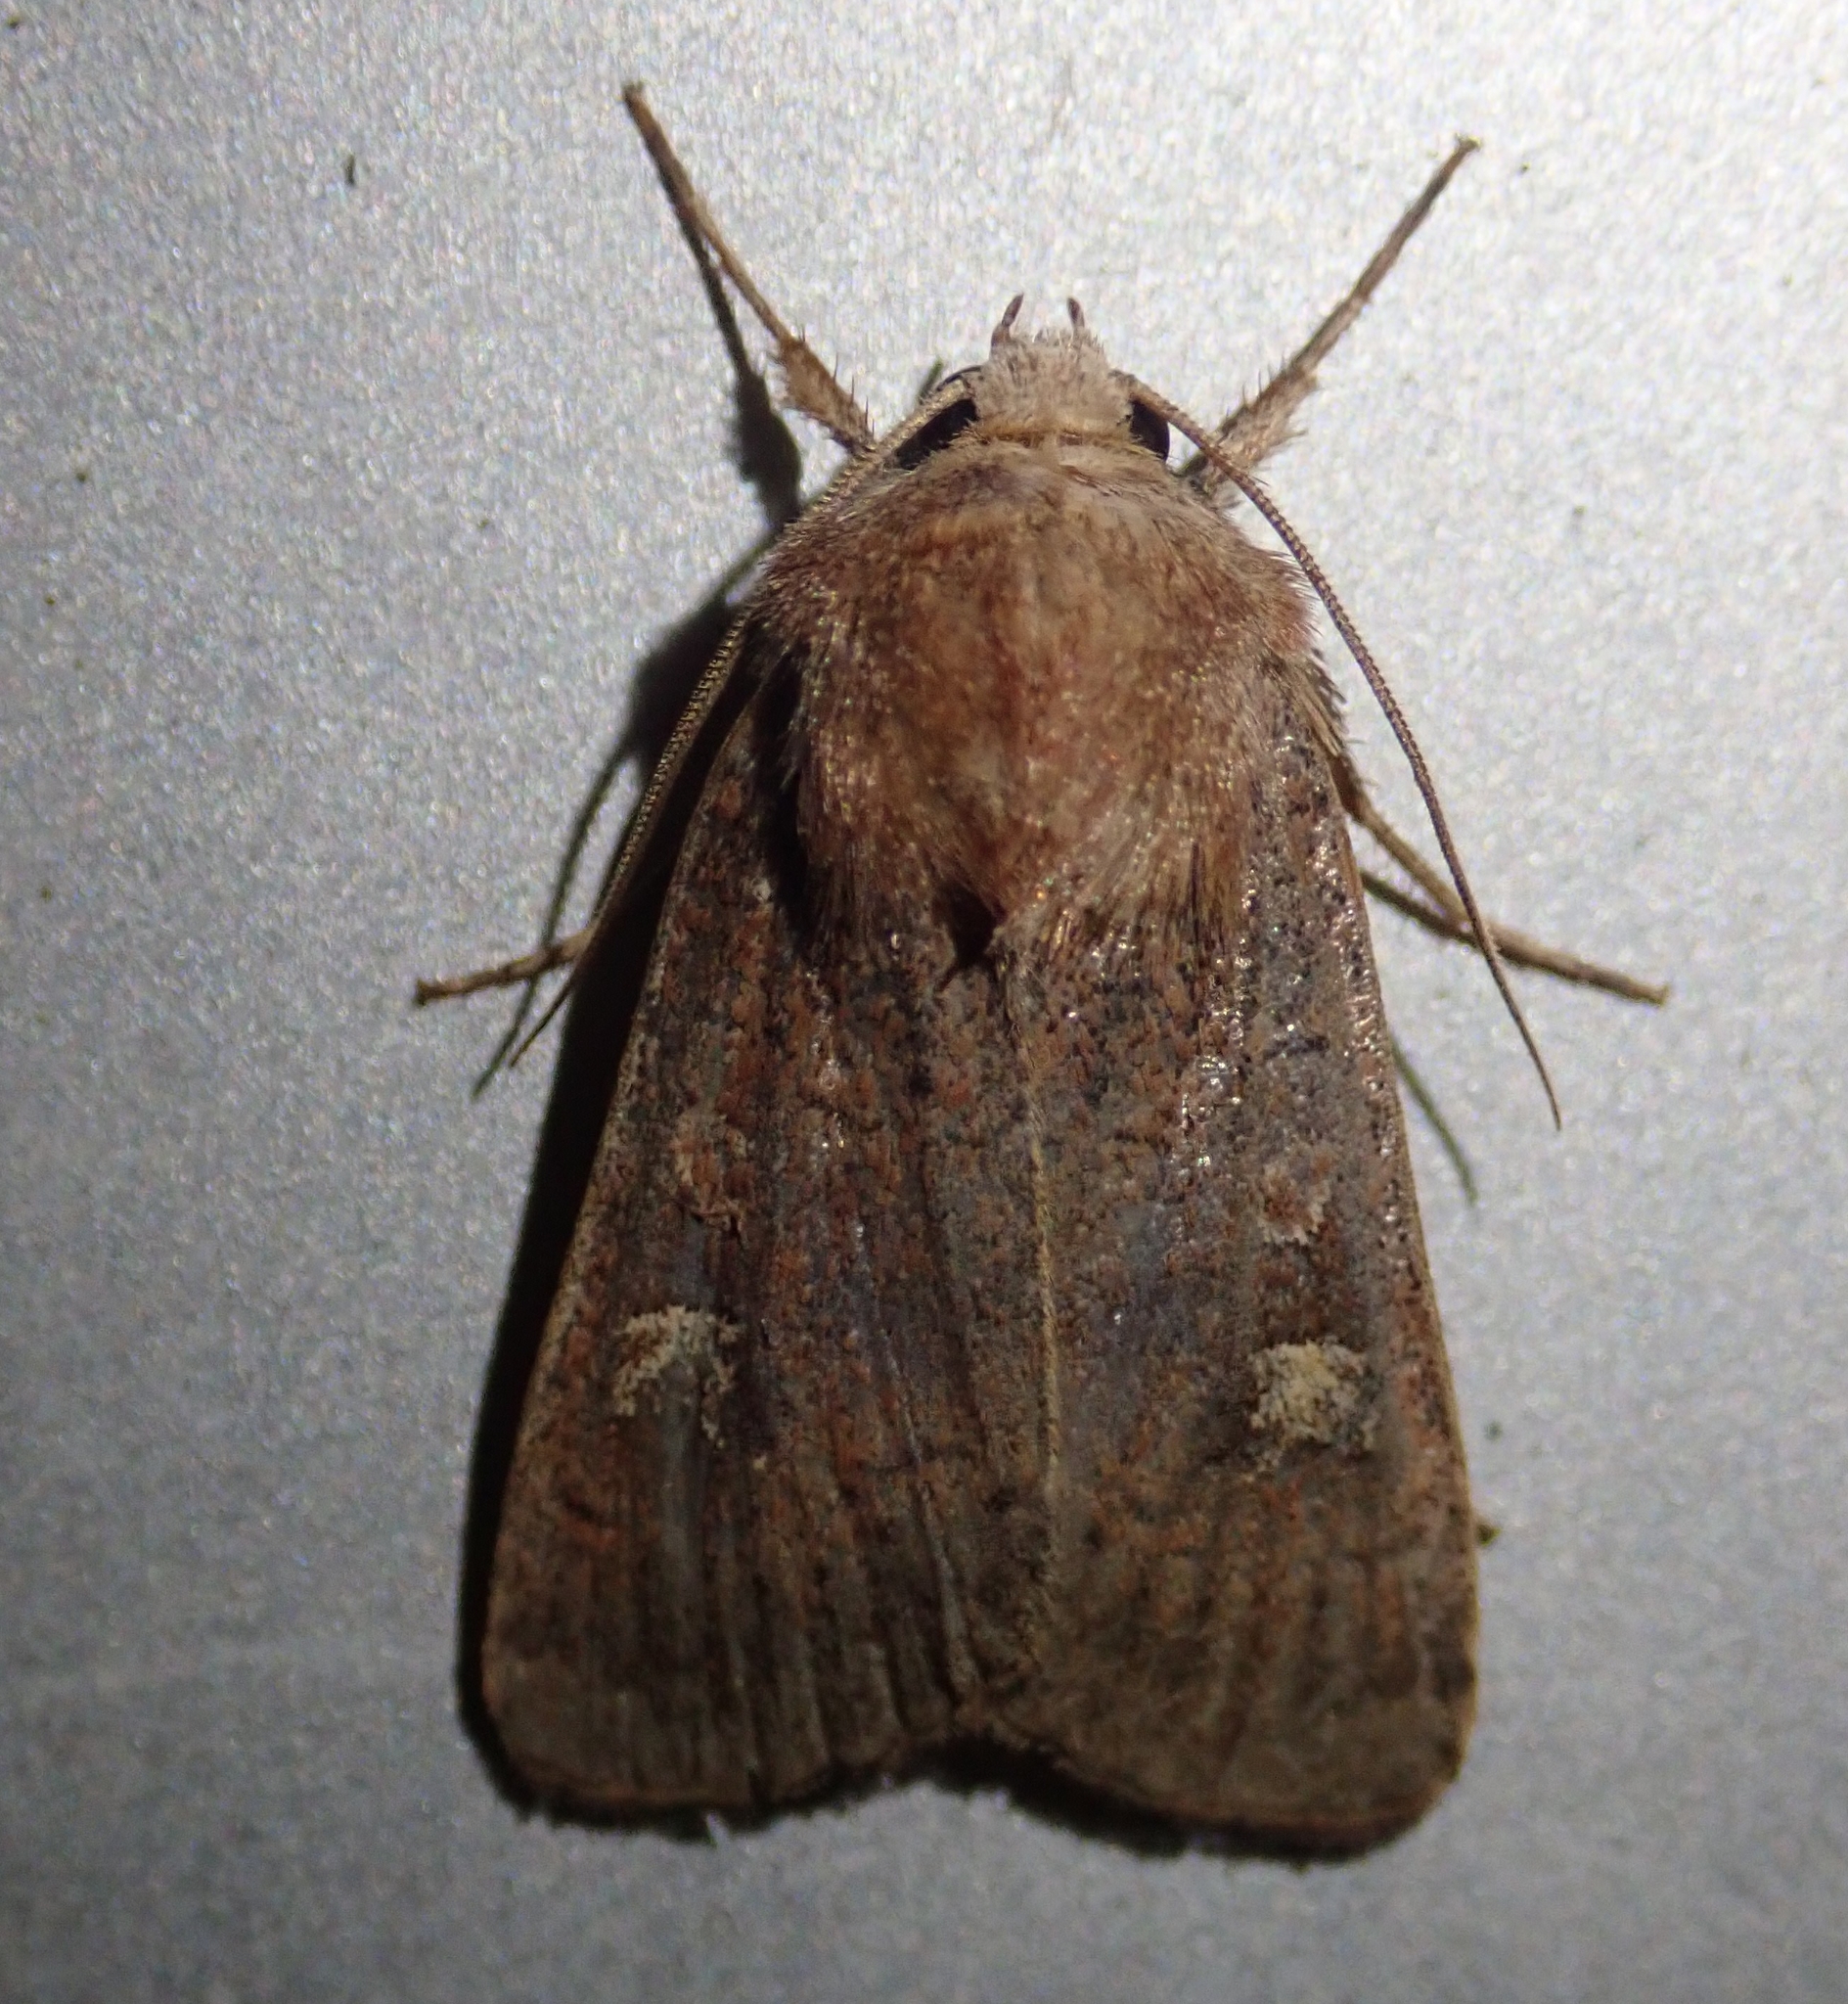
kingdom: Animalia
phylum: Arthropoda
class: Insecta
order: Lepidoptera
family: Noctuidae
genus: Xestia
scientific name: Xestia xanthographa
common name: Square-spot rustic
